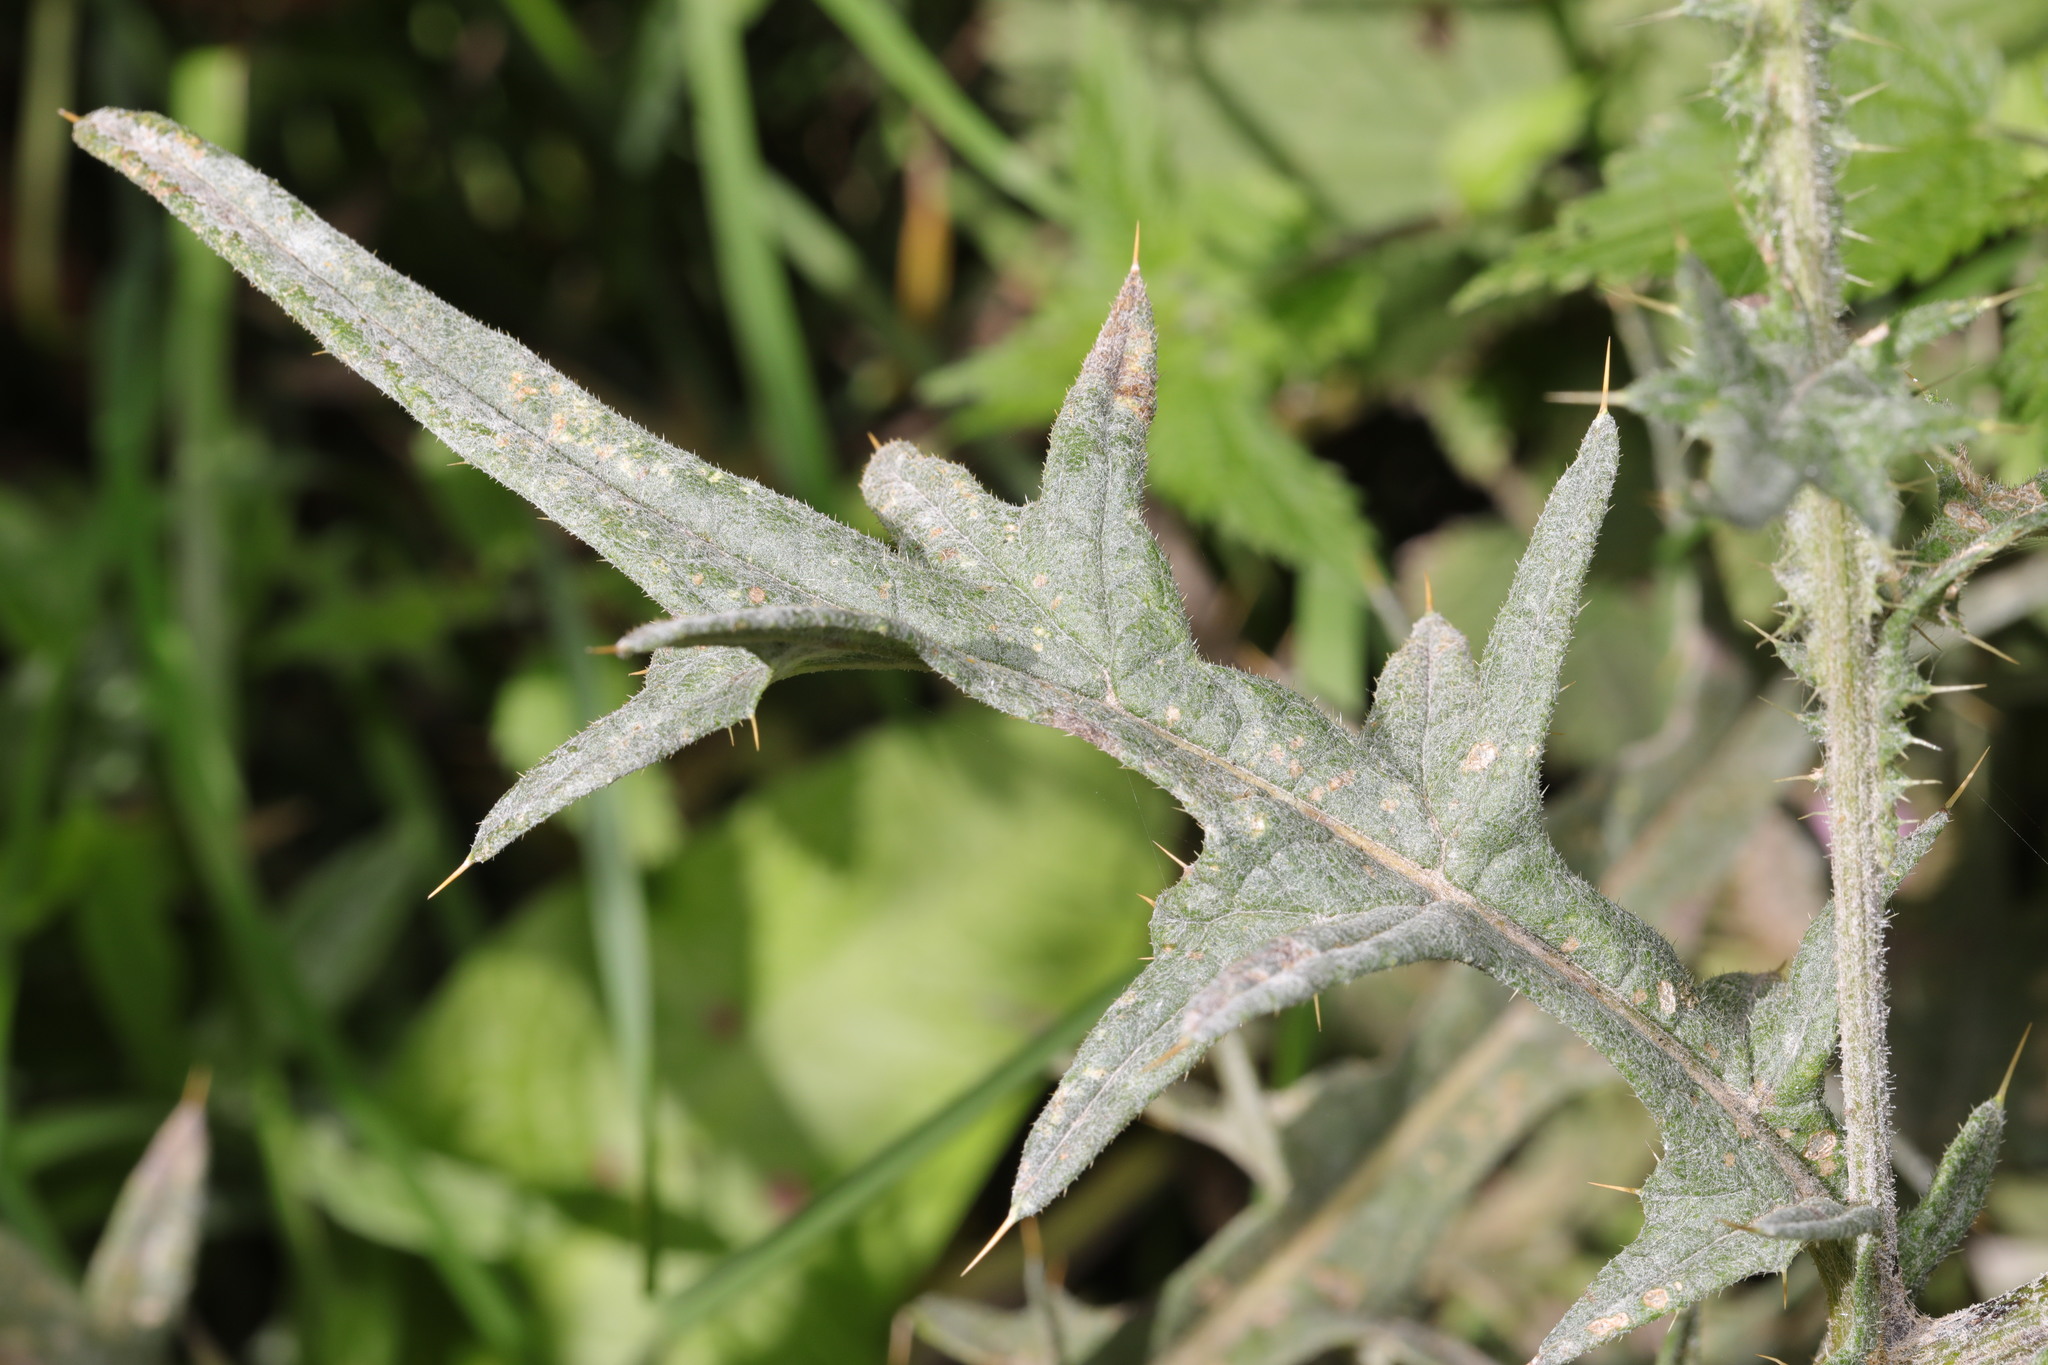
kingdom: Fungi
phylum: Ascomycota
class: Leotiomycetes
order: Helotiales
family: Erysiphaceae
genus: Golovinomyces
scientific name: Golovinomyces montagnei
